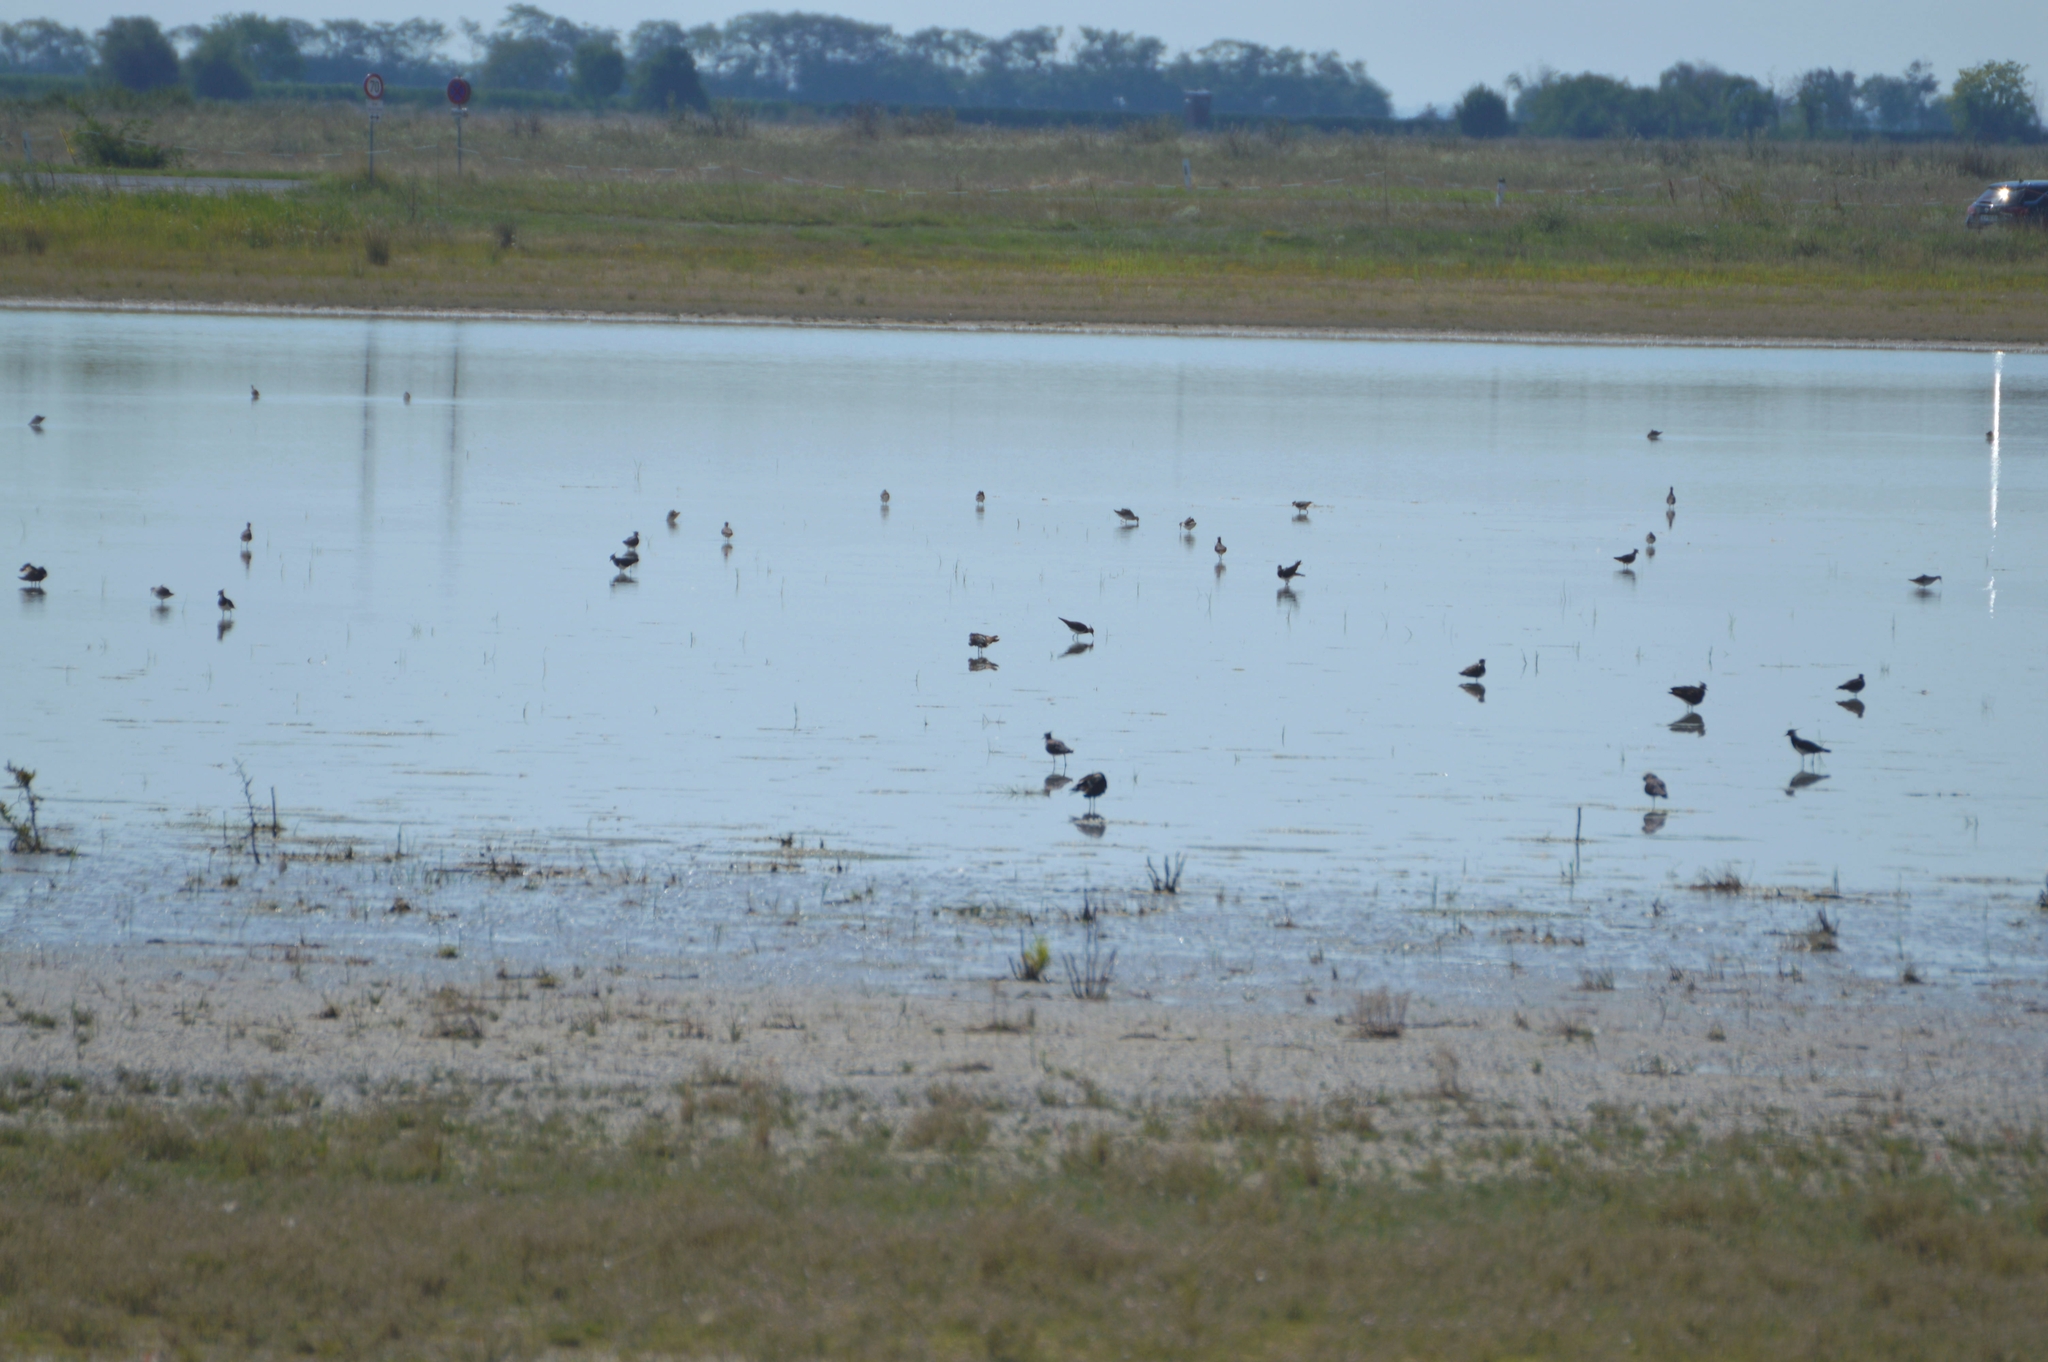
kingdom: Animalia
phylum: Chordata
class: Aves
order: Charadriiformes
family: Charadriidae
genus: Vanellus
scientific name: Vanellus vanellus
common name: Northern lapwing
